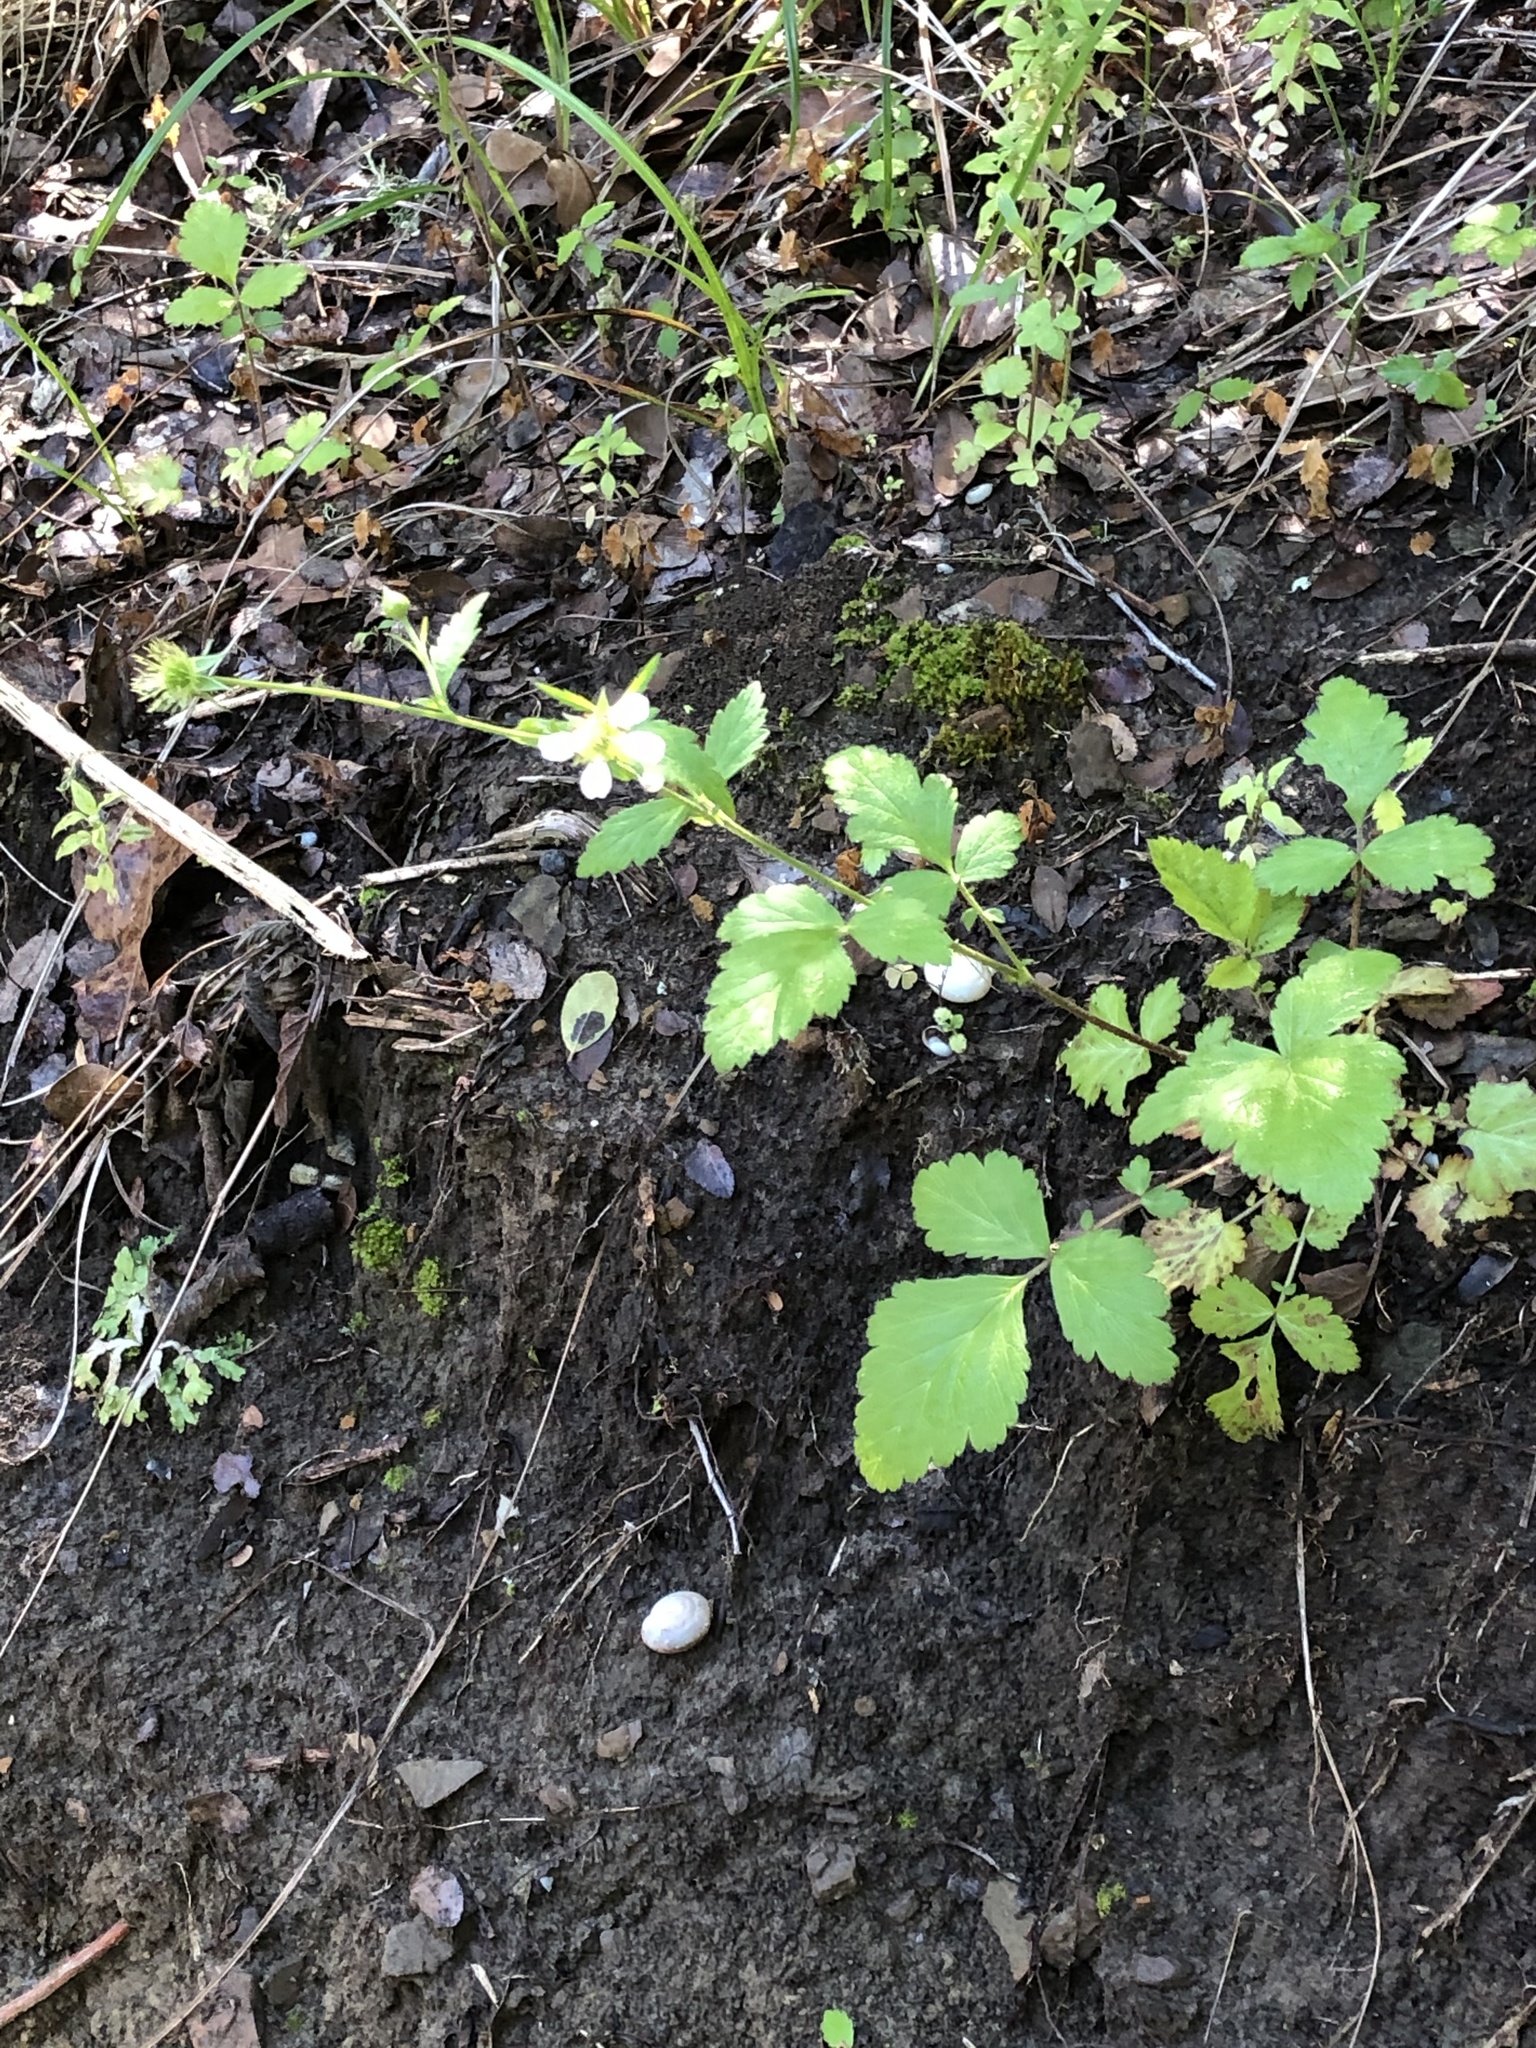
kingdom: Plantae
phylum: Tracheophyta
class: Magnoliopsida
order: Rosales
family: Rosaceae
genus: Geum
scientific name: Geum canadense
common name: White avens
